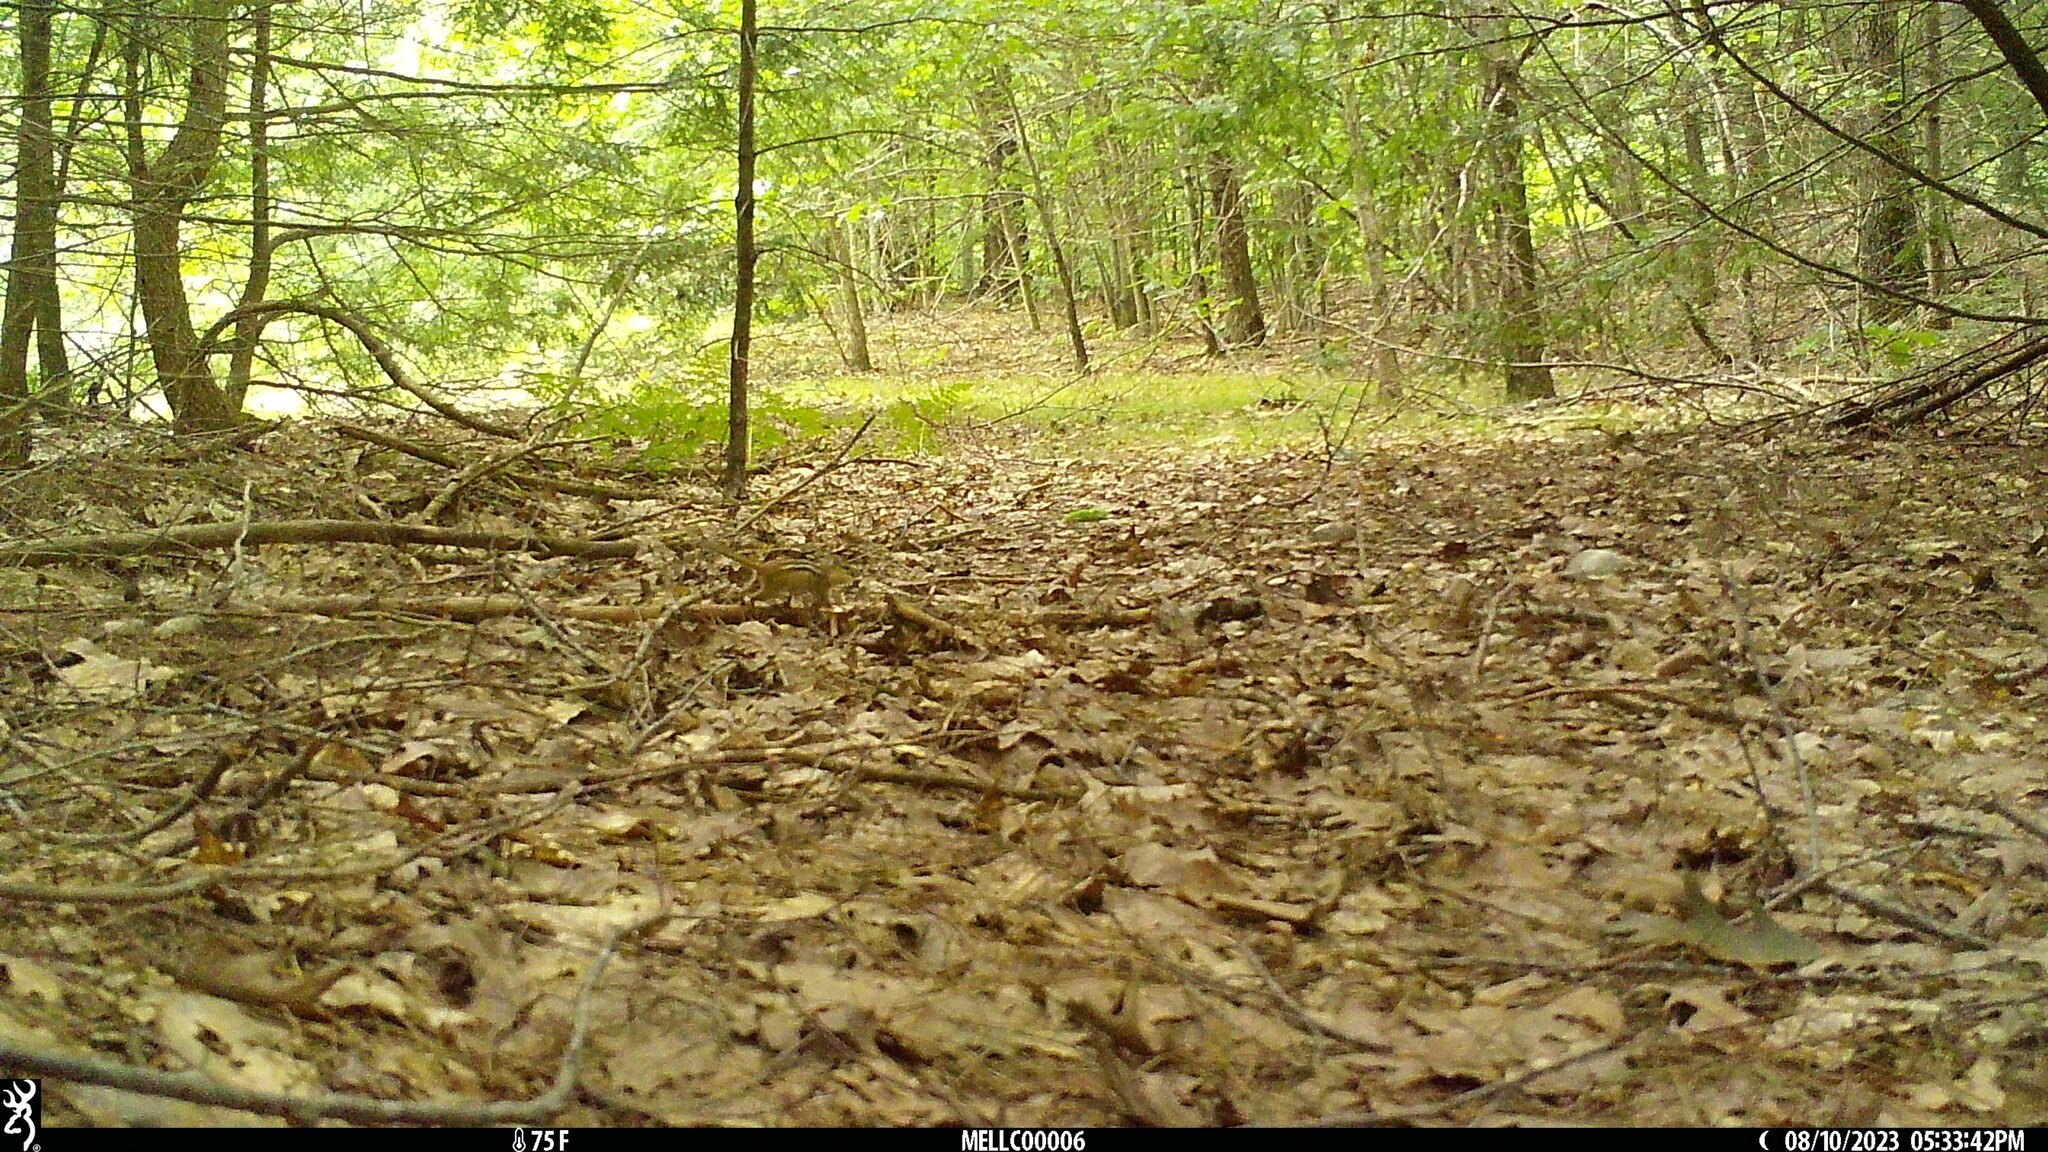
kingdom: Animalia
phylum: Chordata
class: Mammalia
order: Rodentia
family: Sciuridae
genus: Tamias
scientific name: Tamias striatus
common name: Eastern chipmunk
